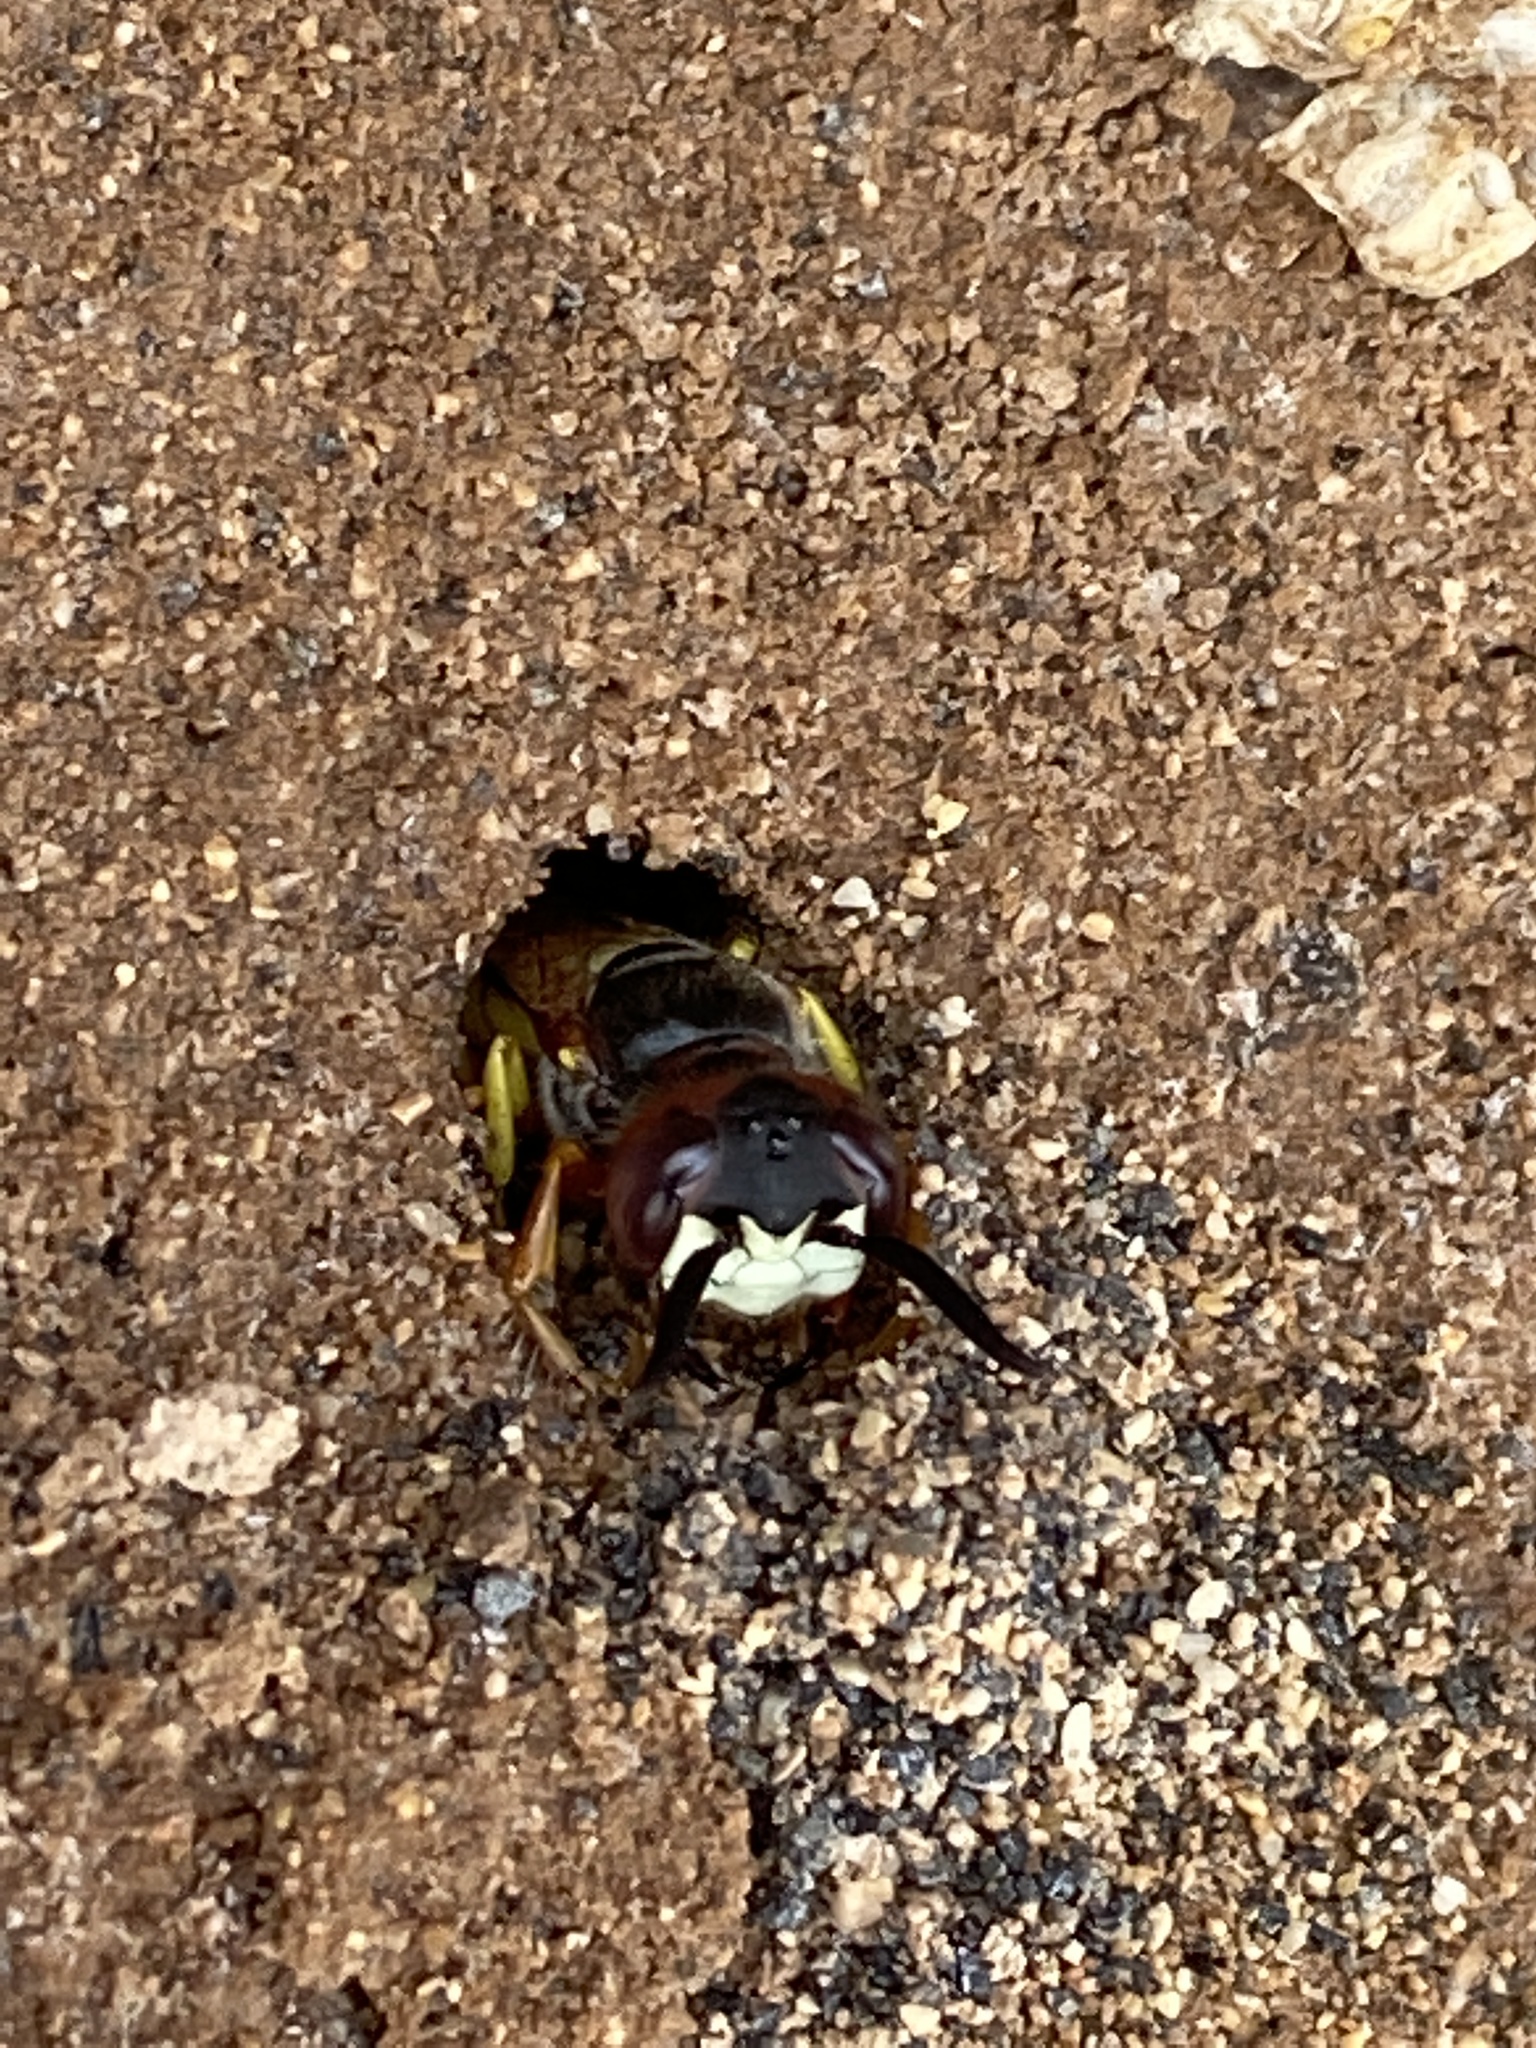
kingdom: Animalia
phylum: Arthropoda
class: Insecta
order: Hymenoptera
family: Crabronidae
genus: Philanthus
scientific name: Philanthus triangulum
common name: Bee wolf
